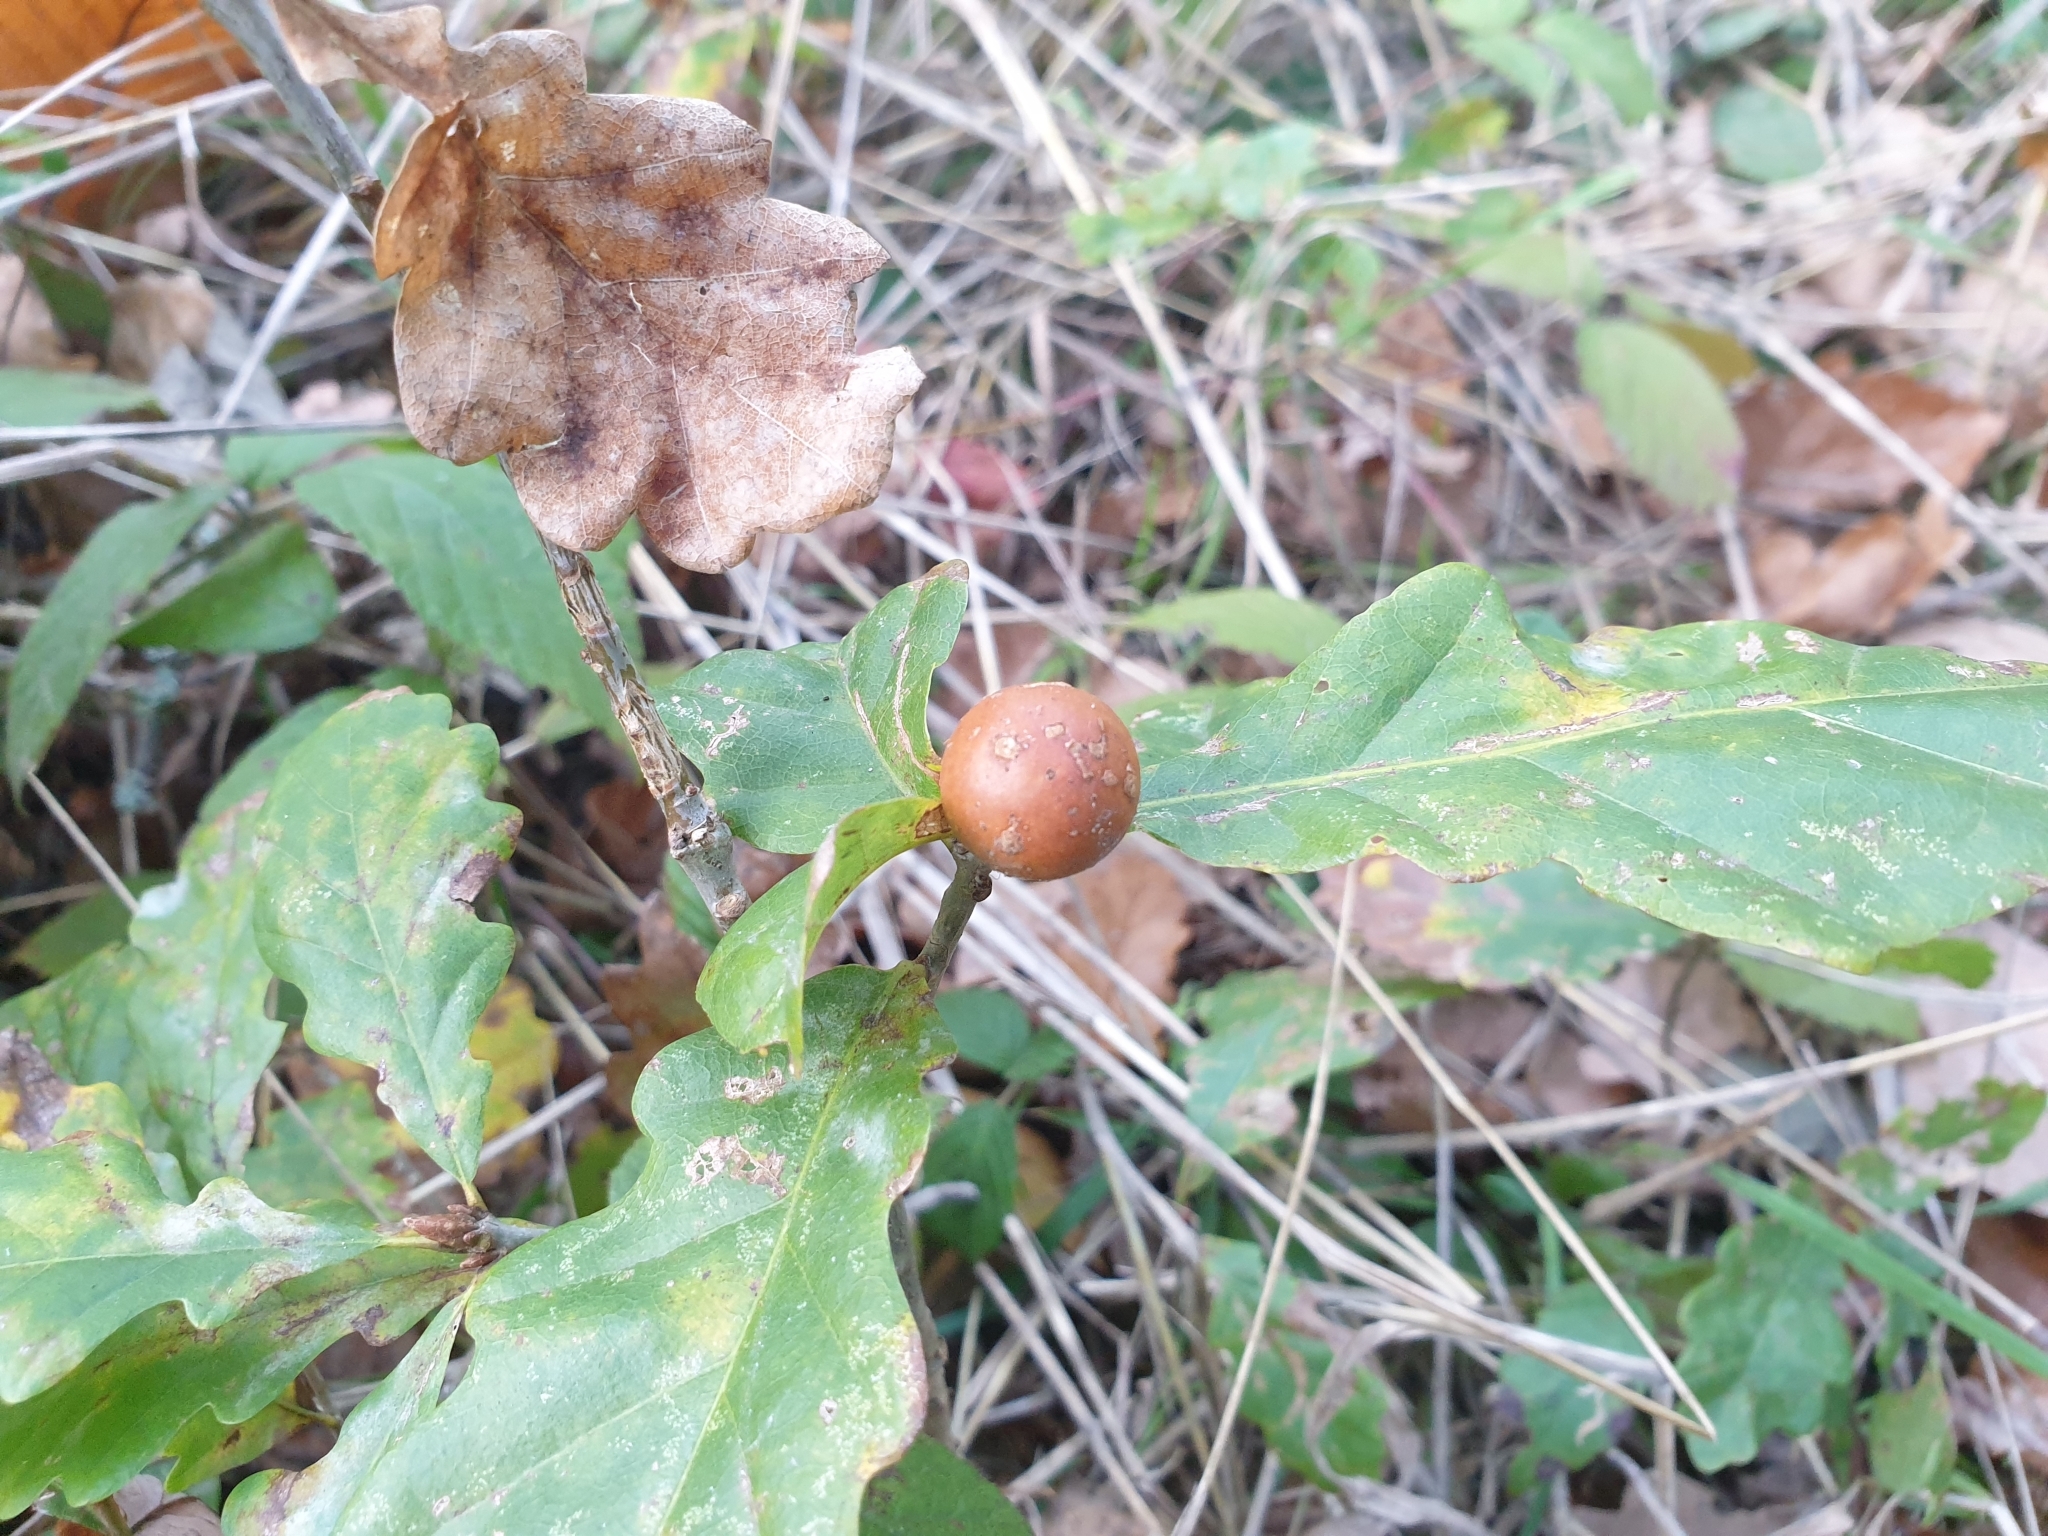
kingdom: Animalia
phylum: Arthropoda
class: Insecta
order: Hymenoptera
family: Cynipidae
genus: Andricus
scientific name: Andricus kollari
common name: Marble gall
